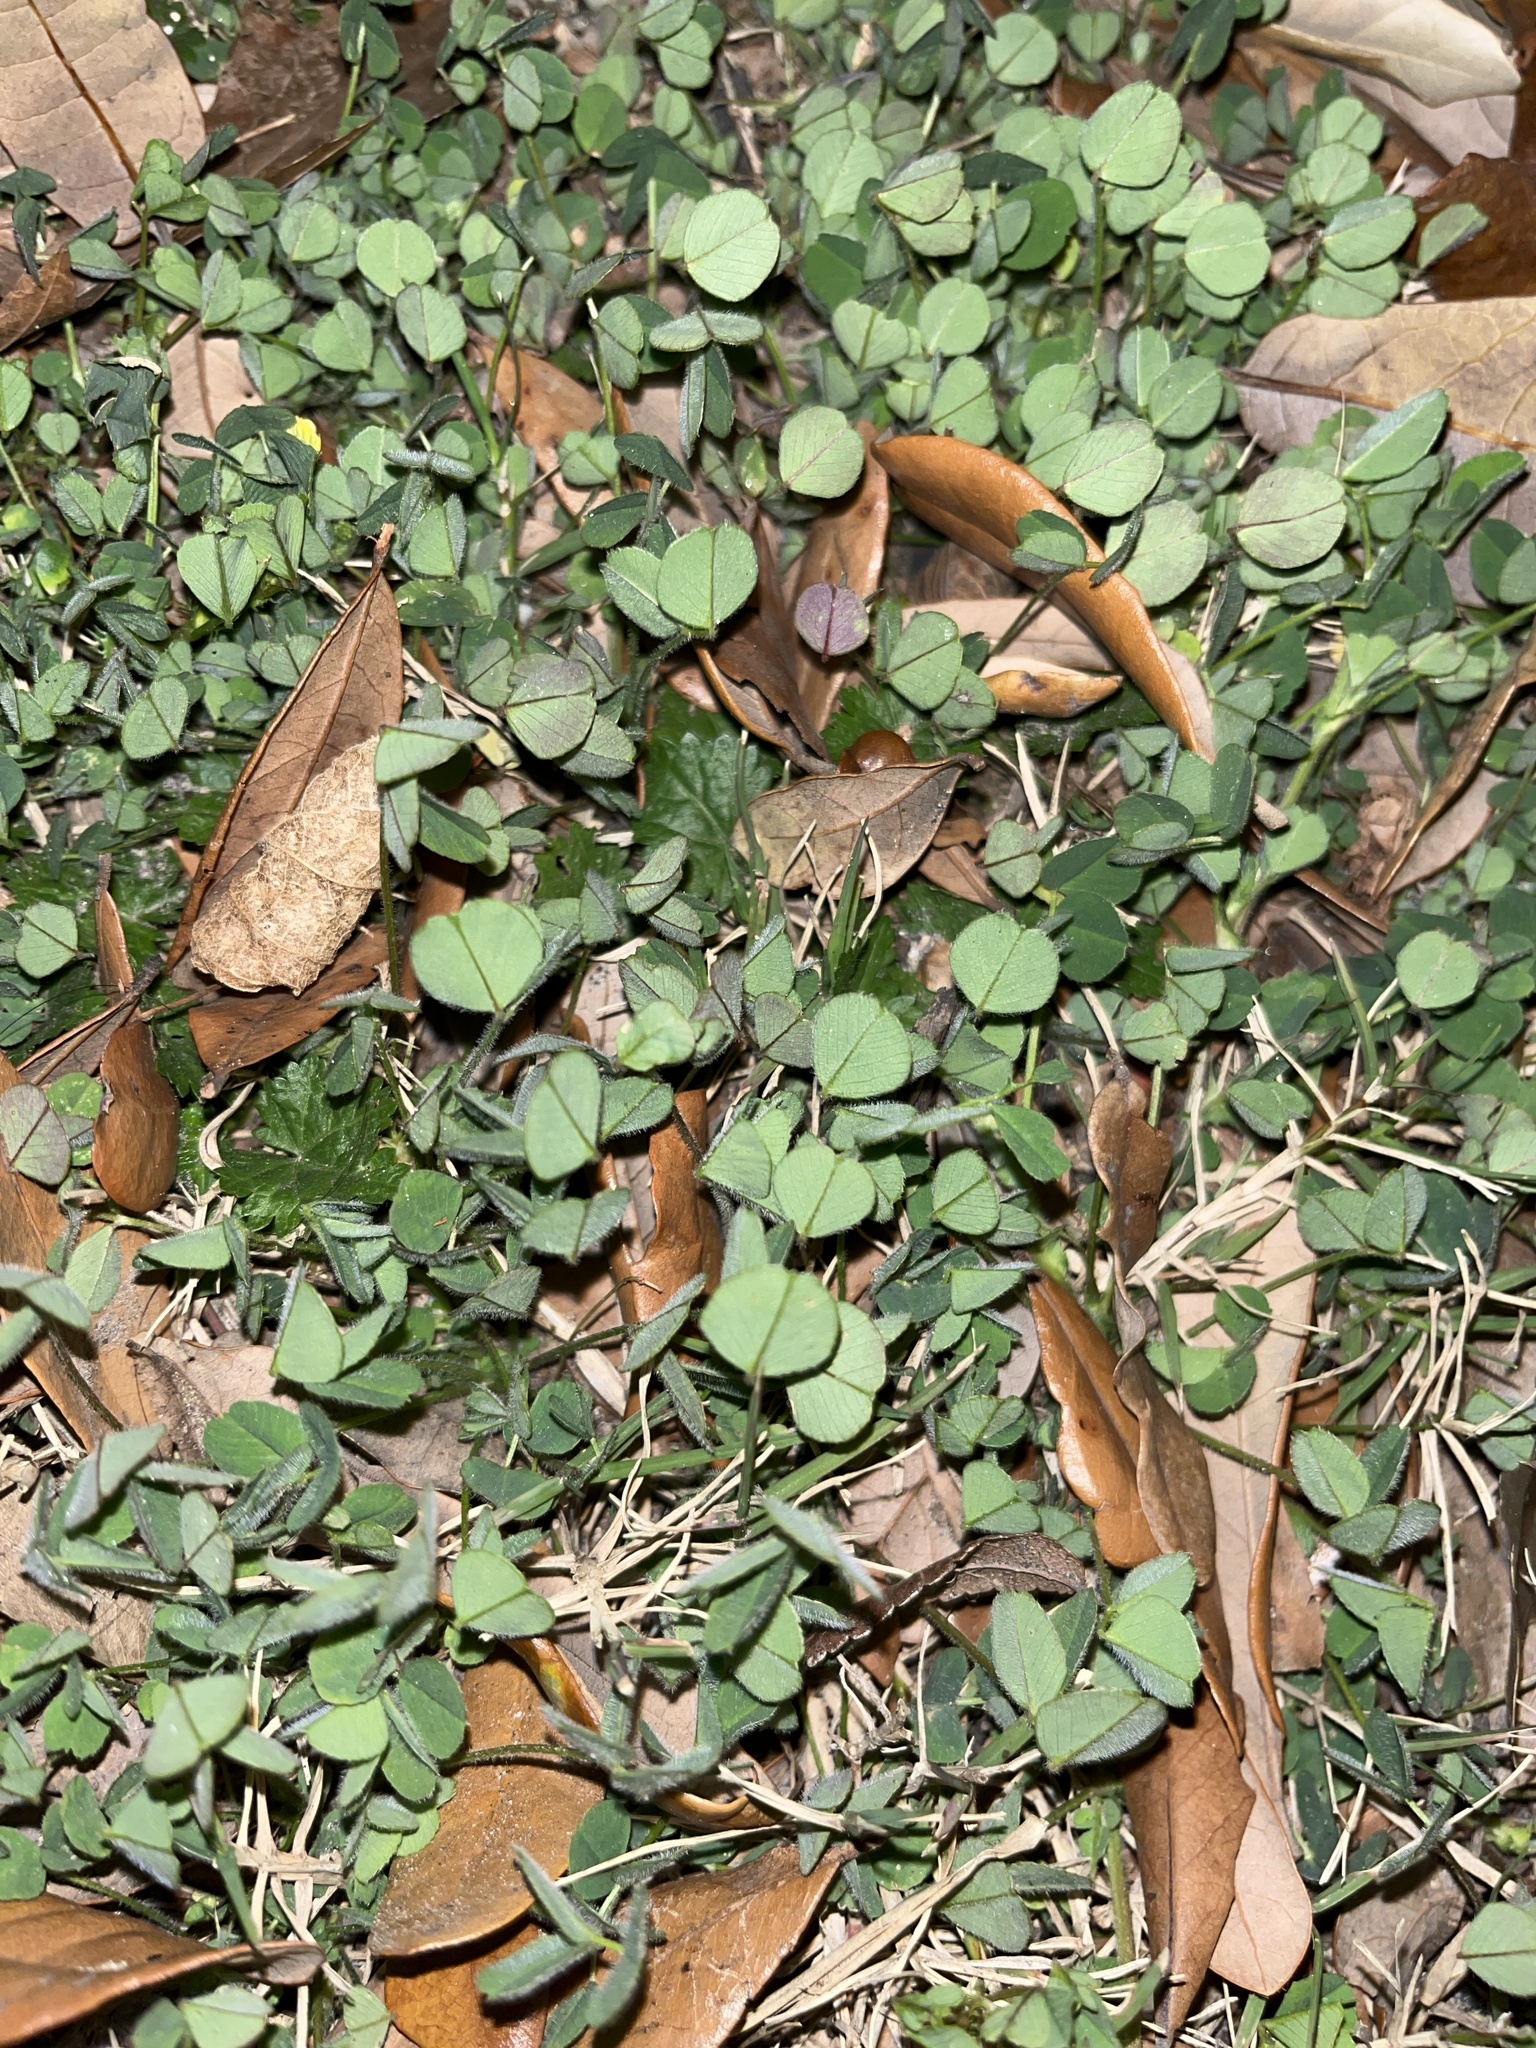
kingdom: Plantae
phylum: Tracheophyta
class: Magnoliopsida
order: Fabales
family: Fabaceae
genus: Medicago
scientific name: Medicago lupulina
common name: Black medick
